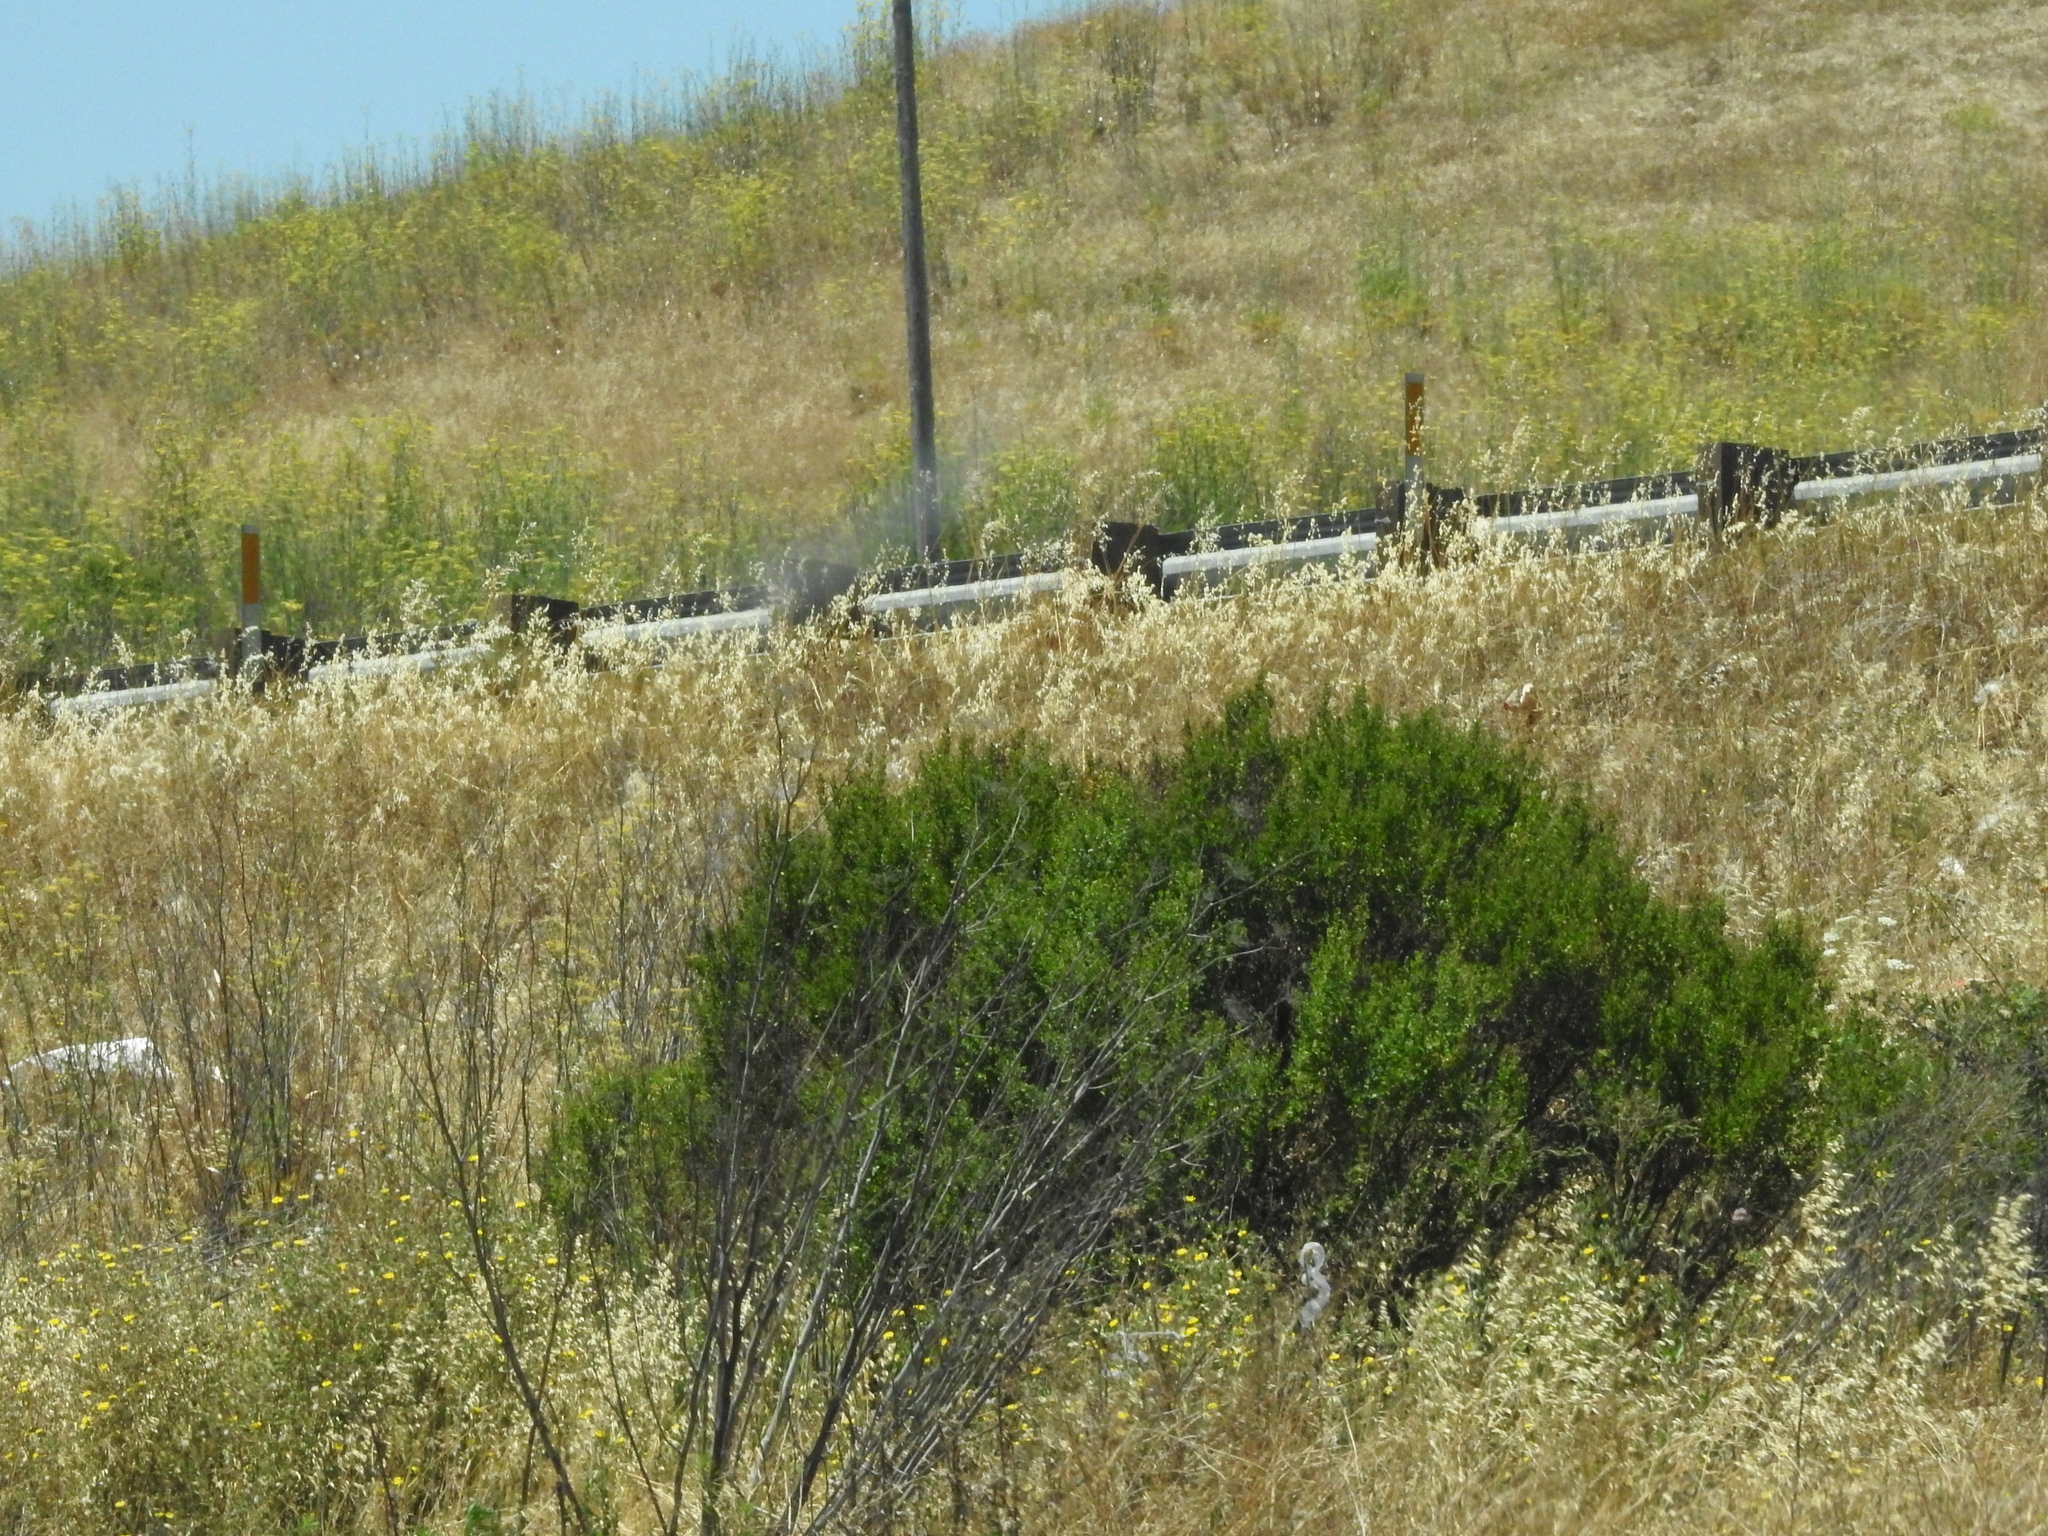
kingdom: Plantae
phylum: Tracheophyta
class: Magnoliopsida
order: Asterales
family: Asteraceae
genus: Baccharis
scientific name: Baccharis pilularis
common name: Coyotebrush
